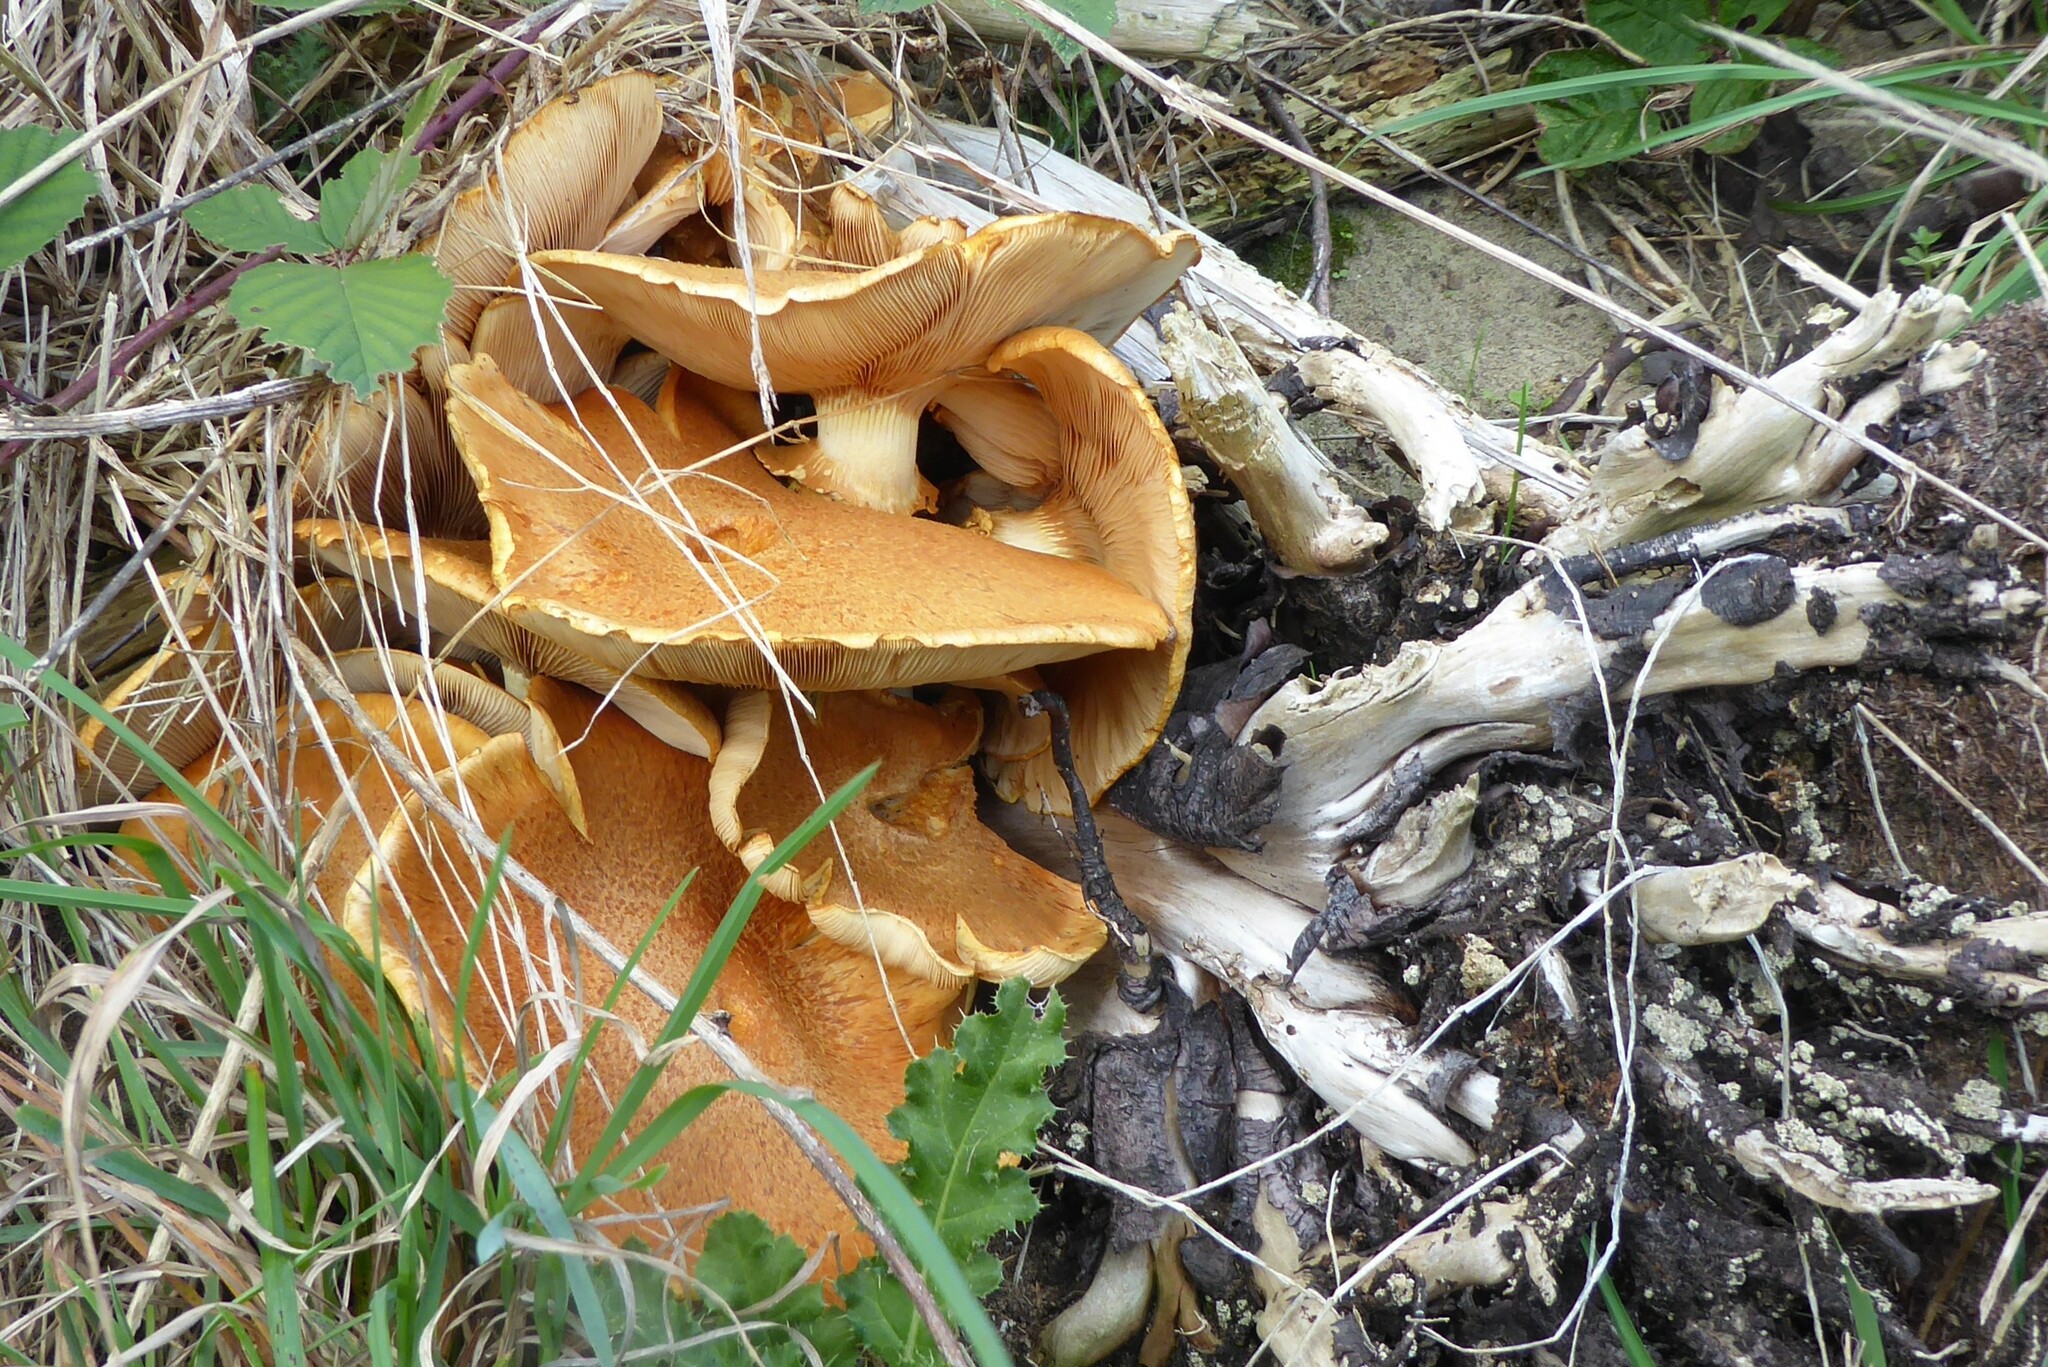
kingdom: Fungi
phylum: Basidiomycota
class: Agaricomycetes
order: Agaricales
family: Hymenogastraceae
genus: Gymnopilus
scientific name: Gymnopilus junonius
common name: Spectacular rustgill
